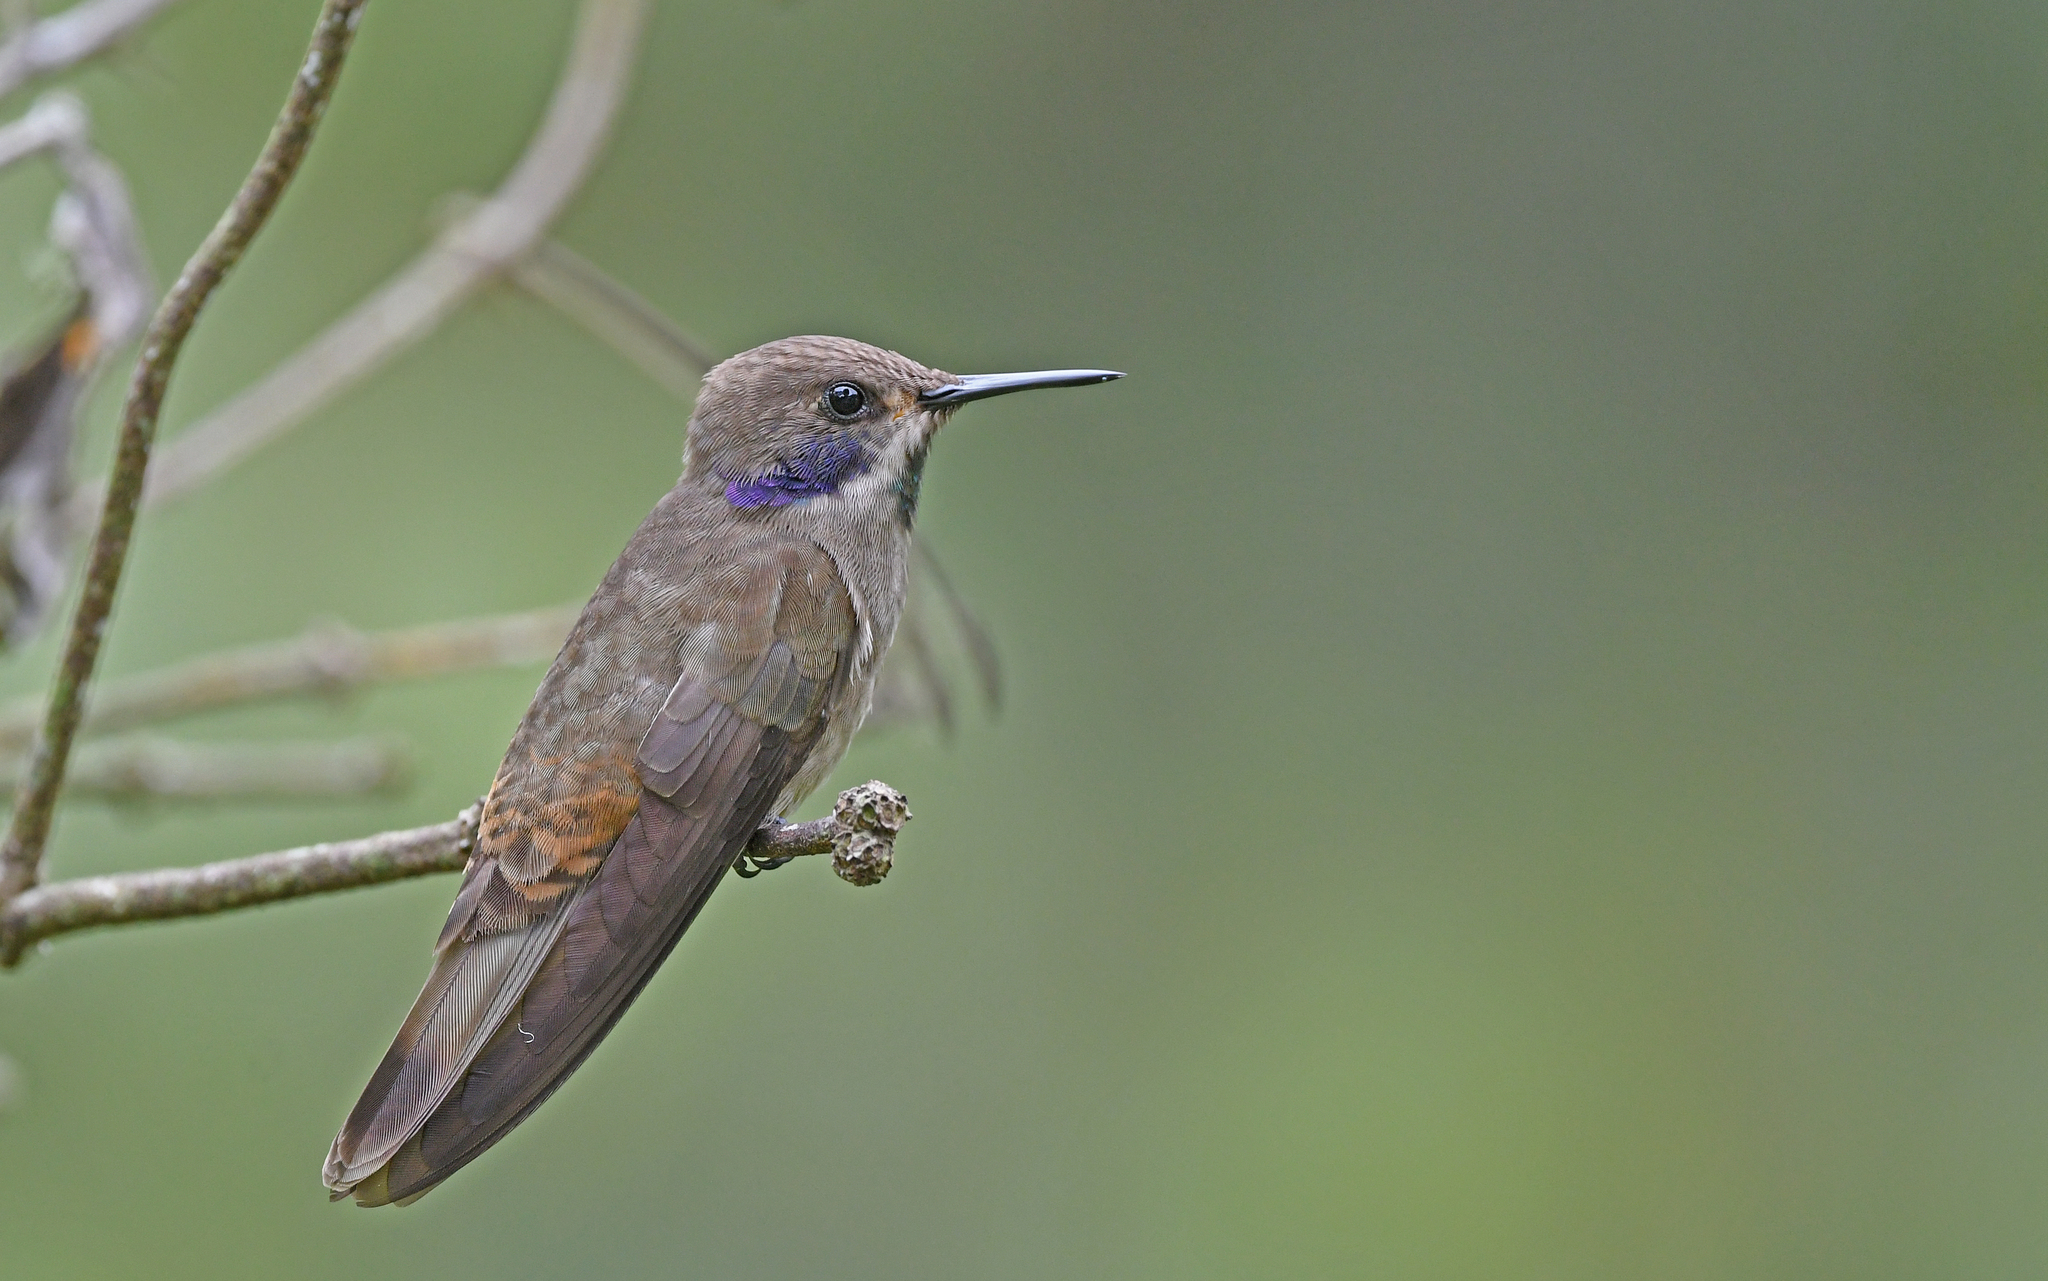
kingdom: Animalia
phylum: Chordata
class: Aves
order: Apodiformes
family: Trochilidae
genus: Colibri
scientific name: Colibri delphinae
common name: Brown violetear
